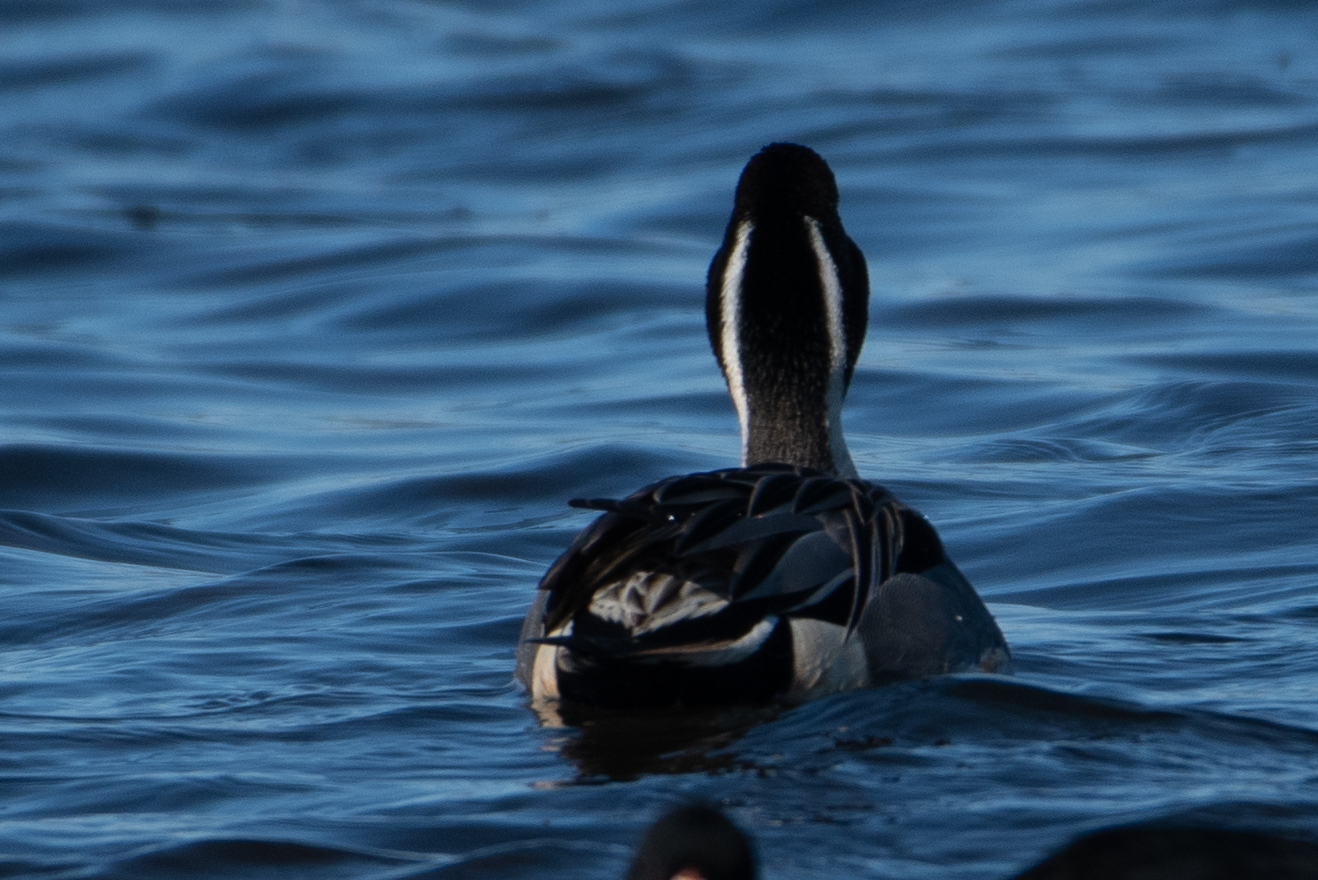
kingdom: Animalia
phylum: Chordata
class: Aves
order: Anseriformes
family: Anatidae
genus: Anas
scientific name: Anas acuta
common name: Northern pintail
